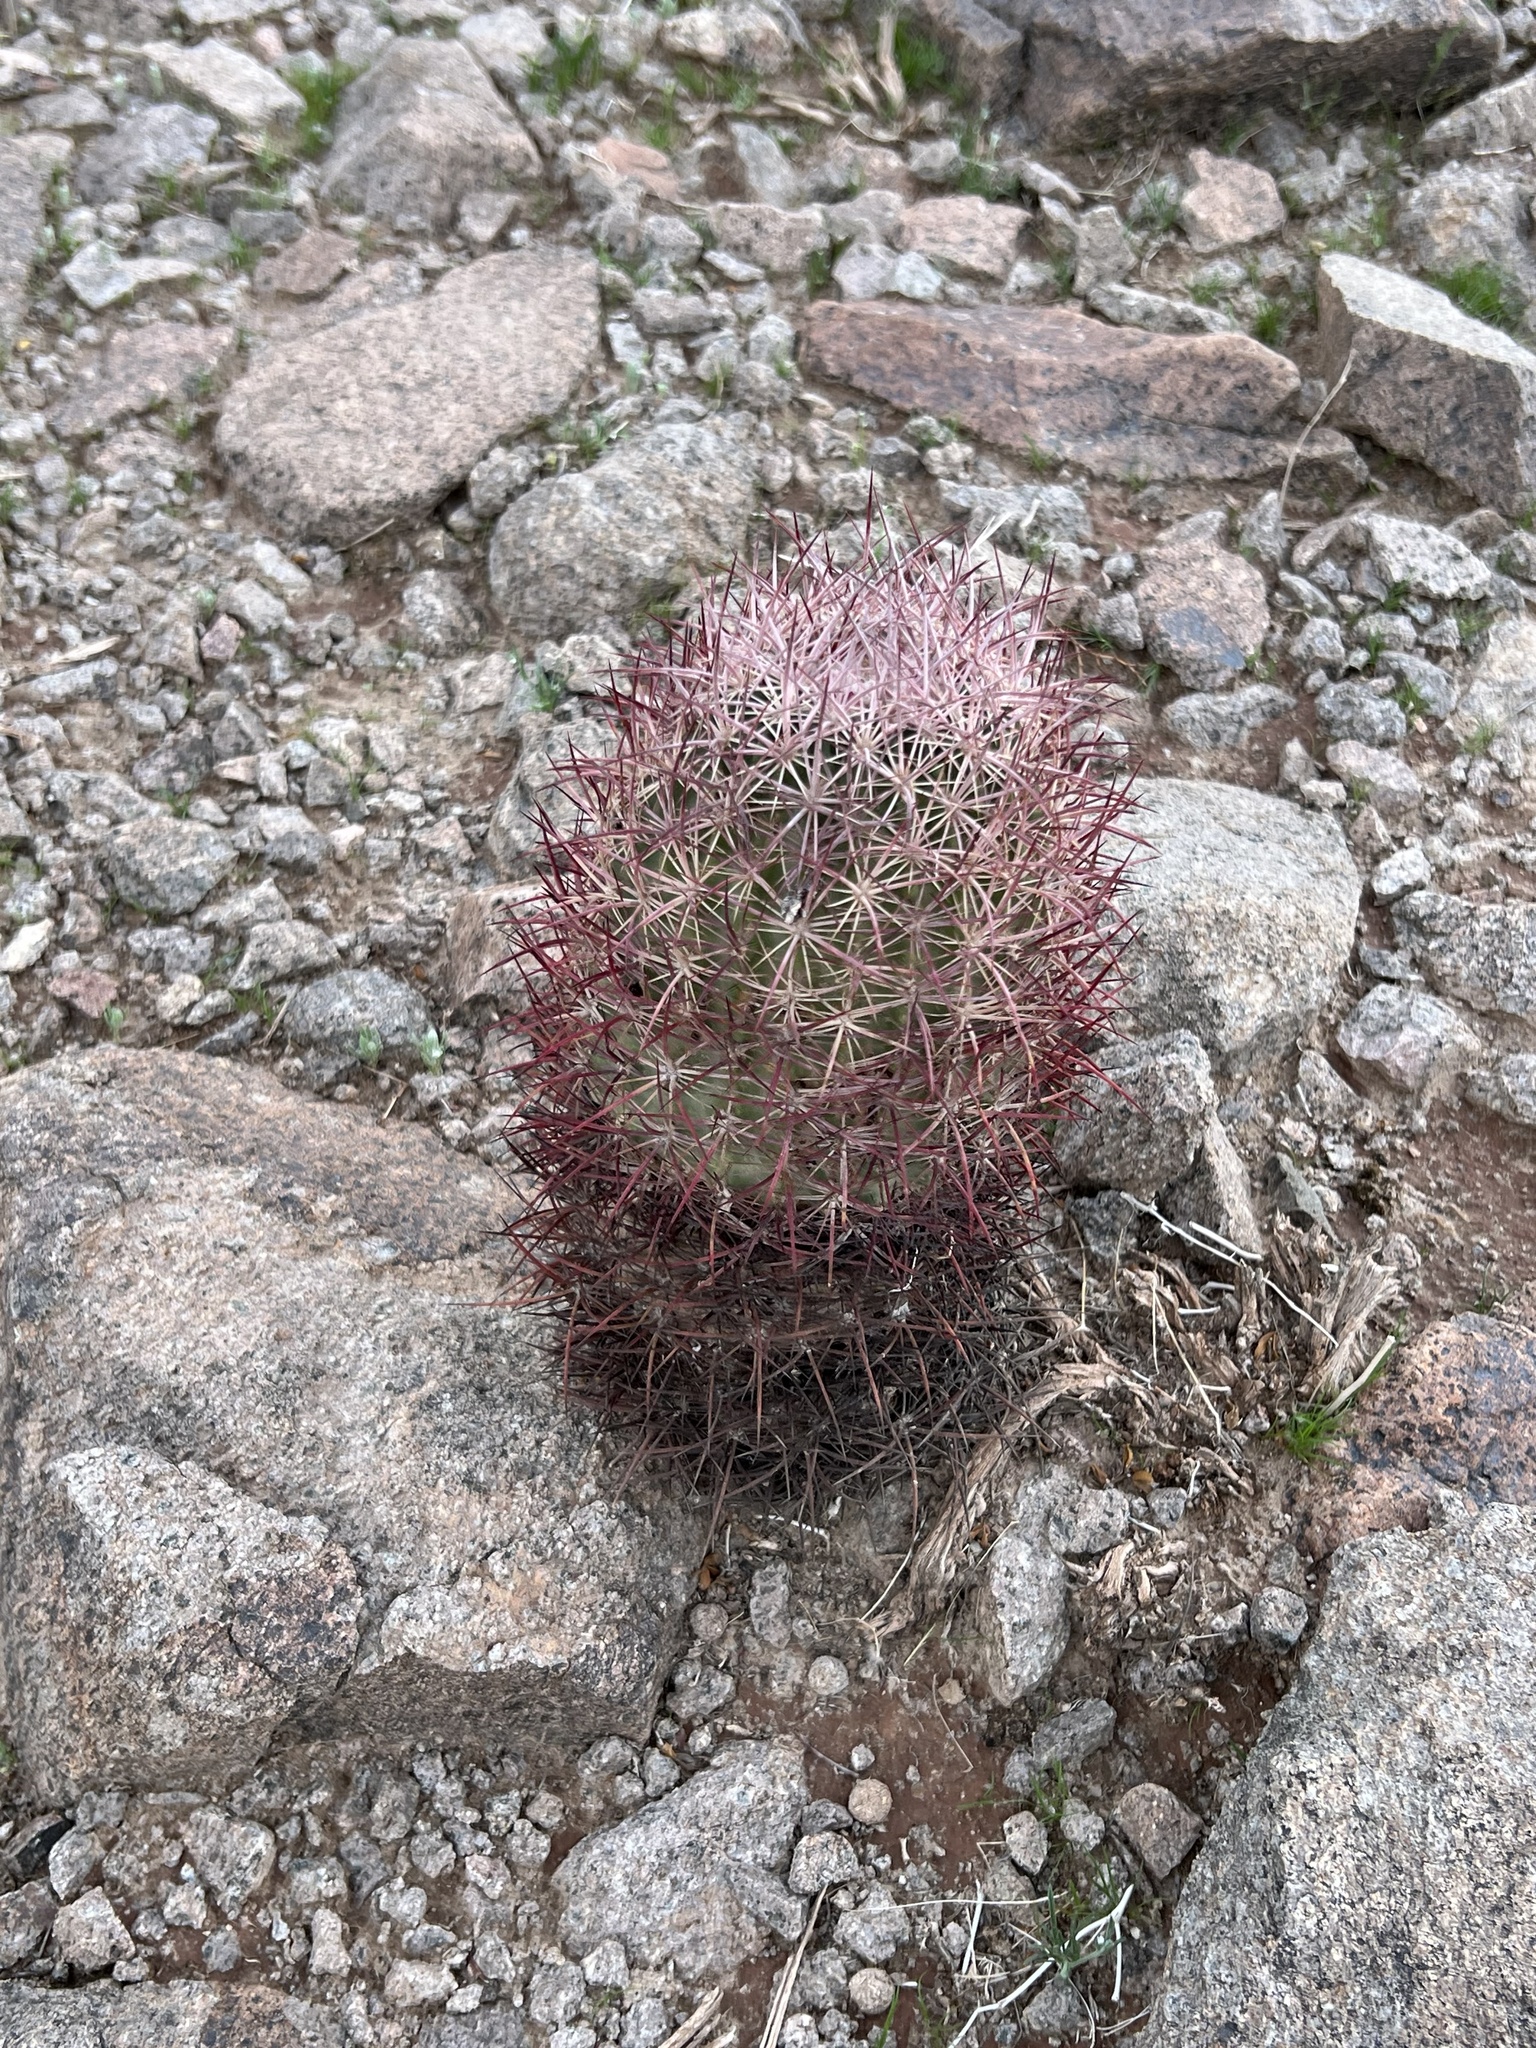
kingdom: Plantae
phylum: Tracheophyta
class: Magnoliopsida
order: Caryophyllales
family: Cactaceae
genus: Sclerocactus
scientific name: Sclerocactus johnsonii
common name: Eight-spine fishhook cactus
